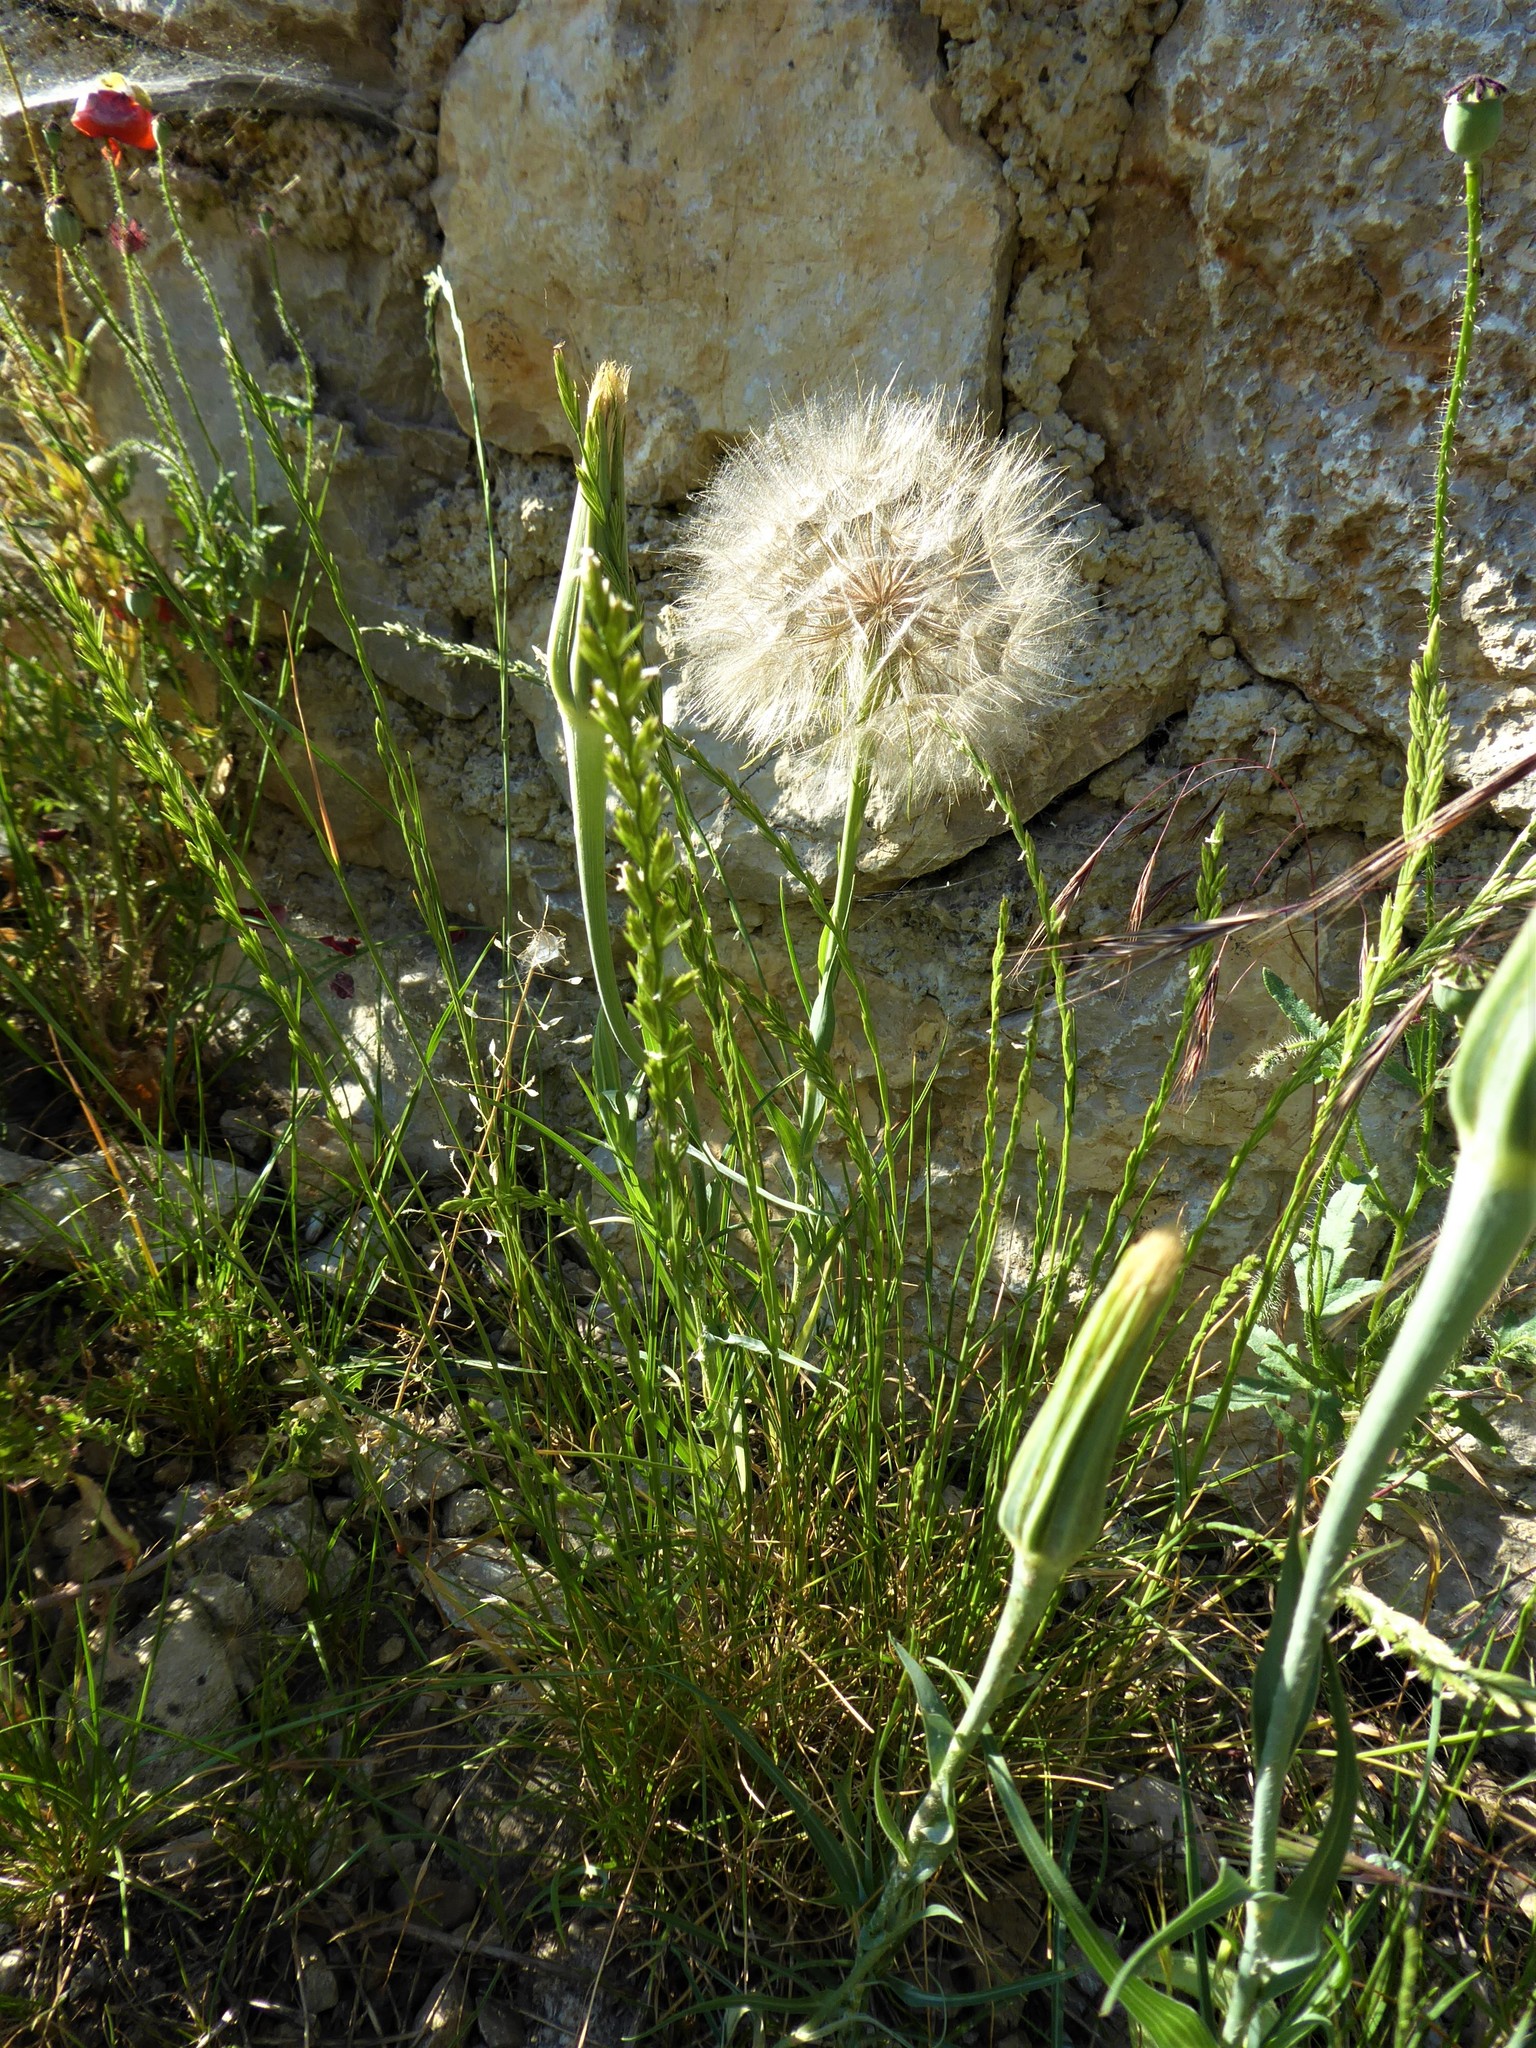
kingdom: Plantae
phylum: Tracheophyta
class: Magnoliopsida
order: Asterales
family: Asteraceae
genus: Tragopogon
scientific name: Tragopogon dubius
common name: Yellow salsify
